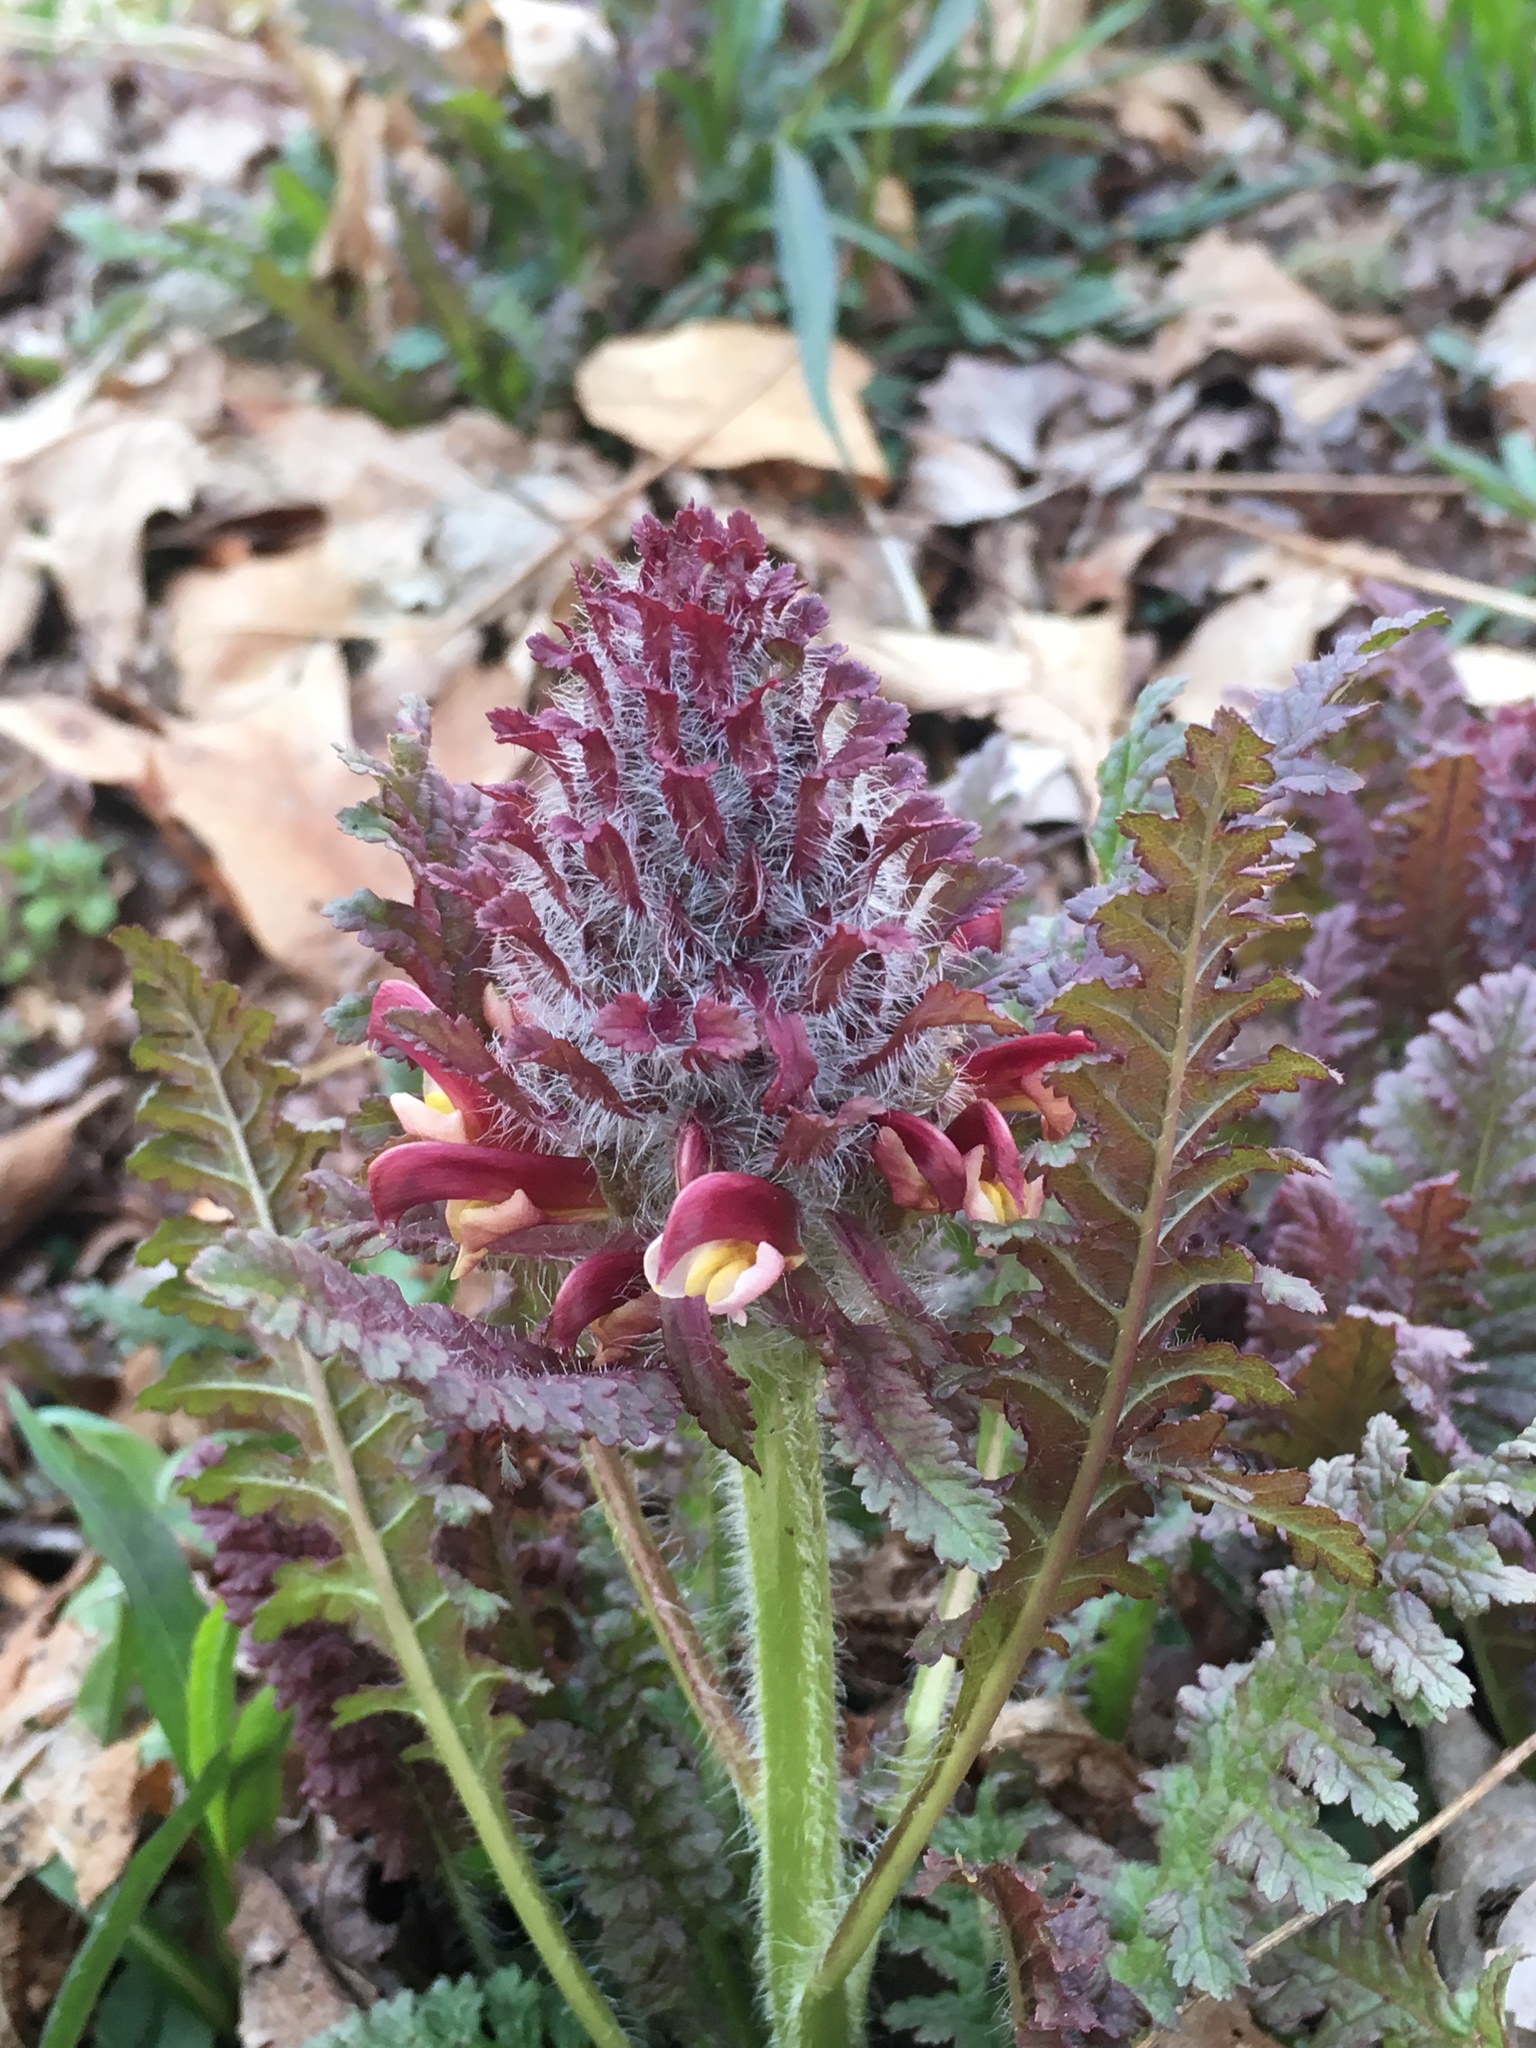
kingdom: Plantae
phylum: Tracheophyta
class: Magnoliopsida
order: Lamiales
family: Orobanchaceae
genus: Pedicularis
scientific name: Pedicularis canadensis
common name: Early lousewort
